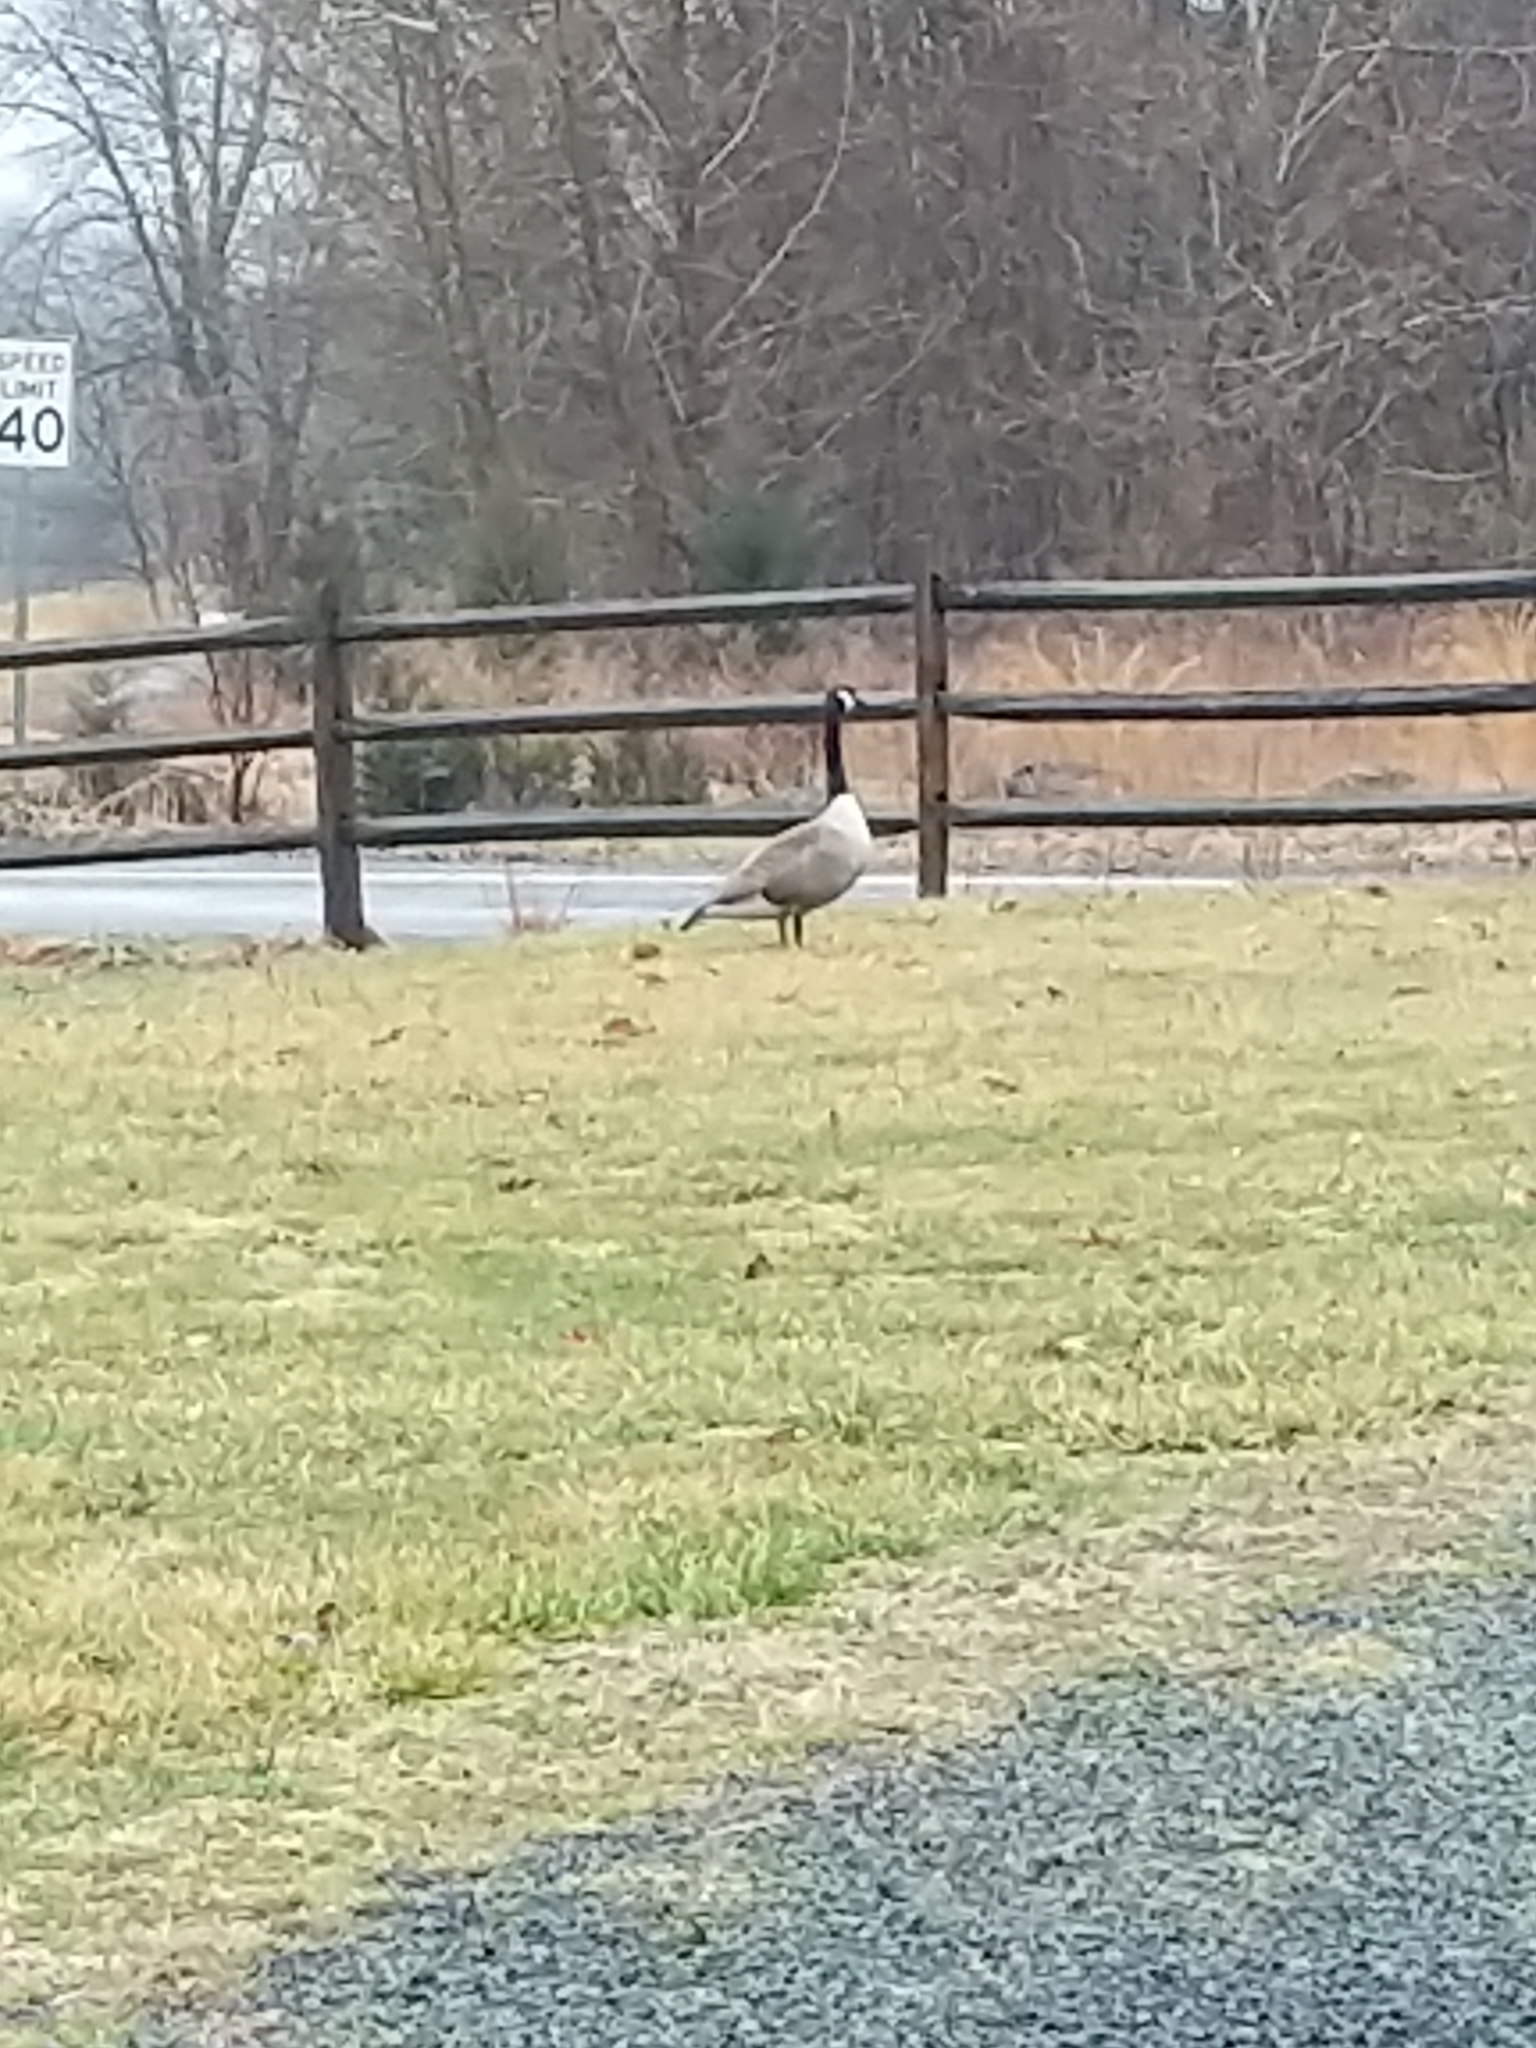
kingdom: Animalia
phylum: Chordata
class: Aves
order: Anseriformes
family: Anatidae
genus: Branta
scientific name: Branta canadensis
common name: Canada goose
